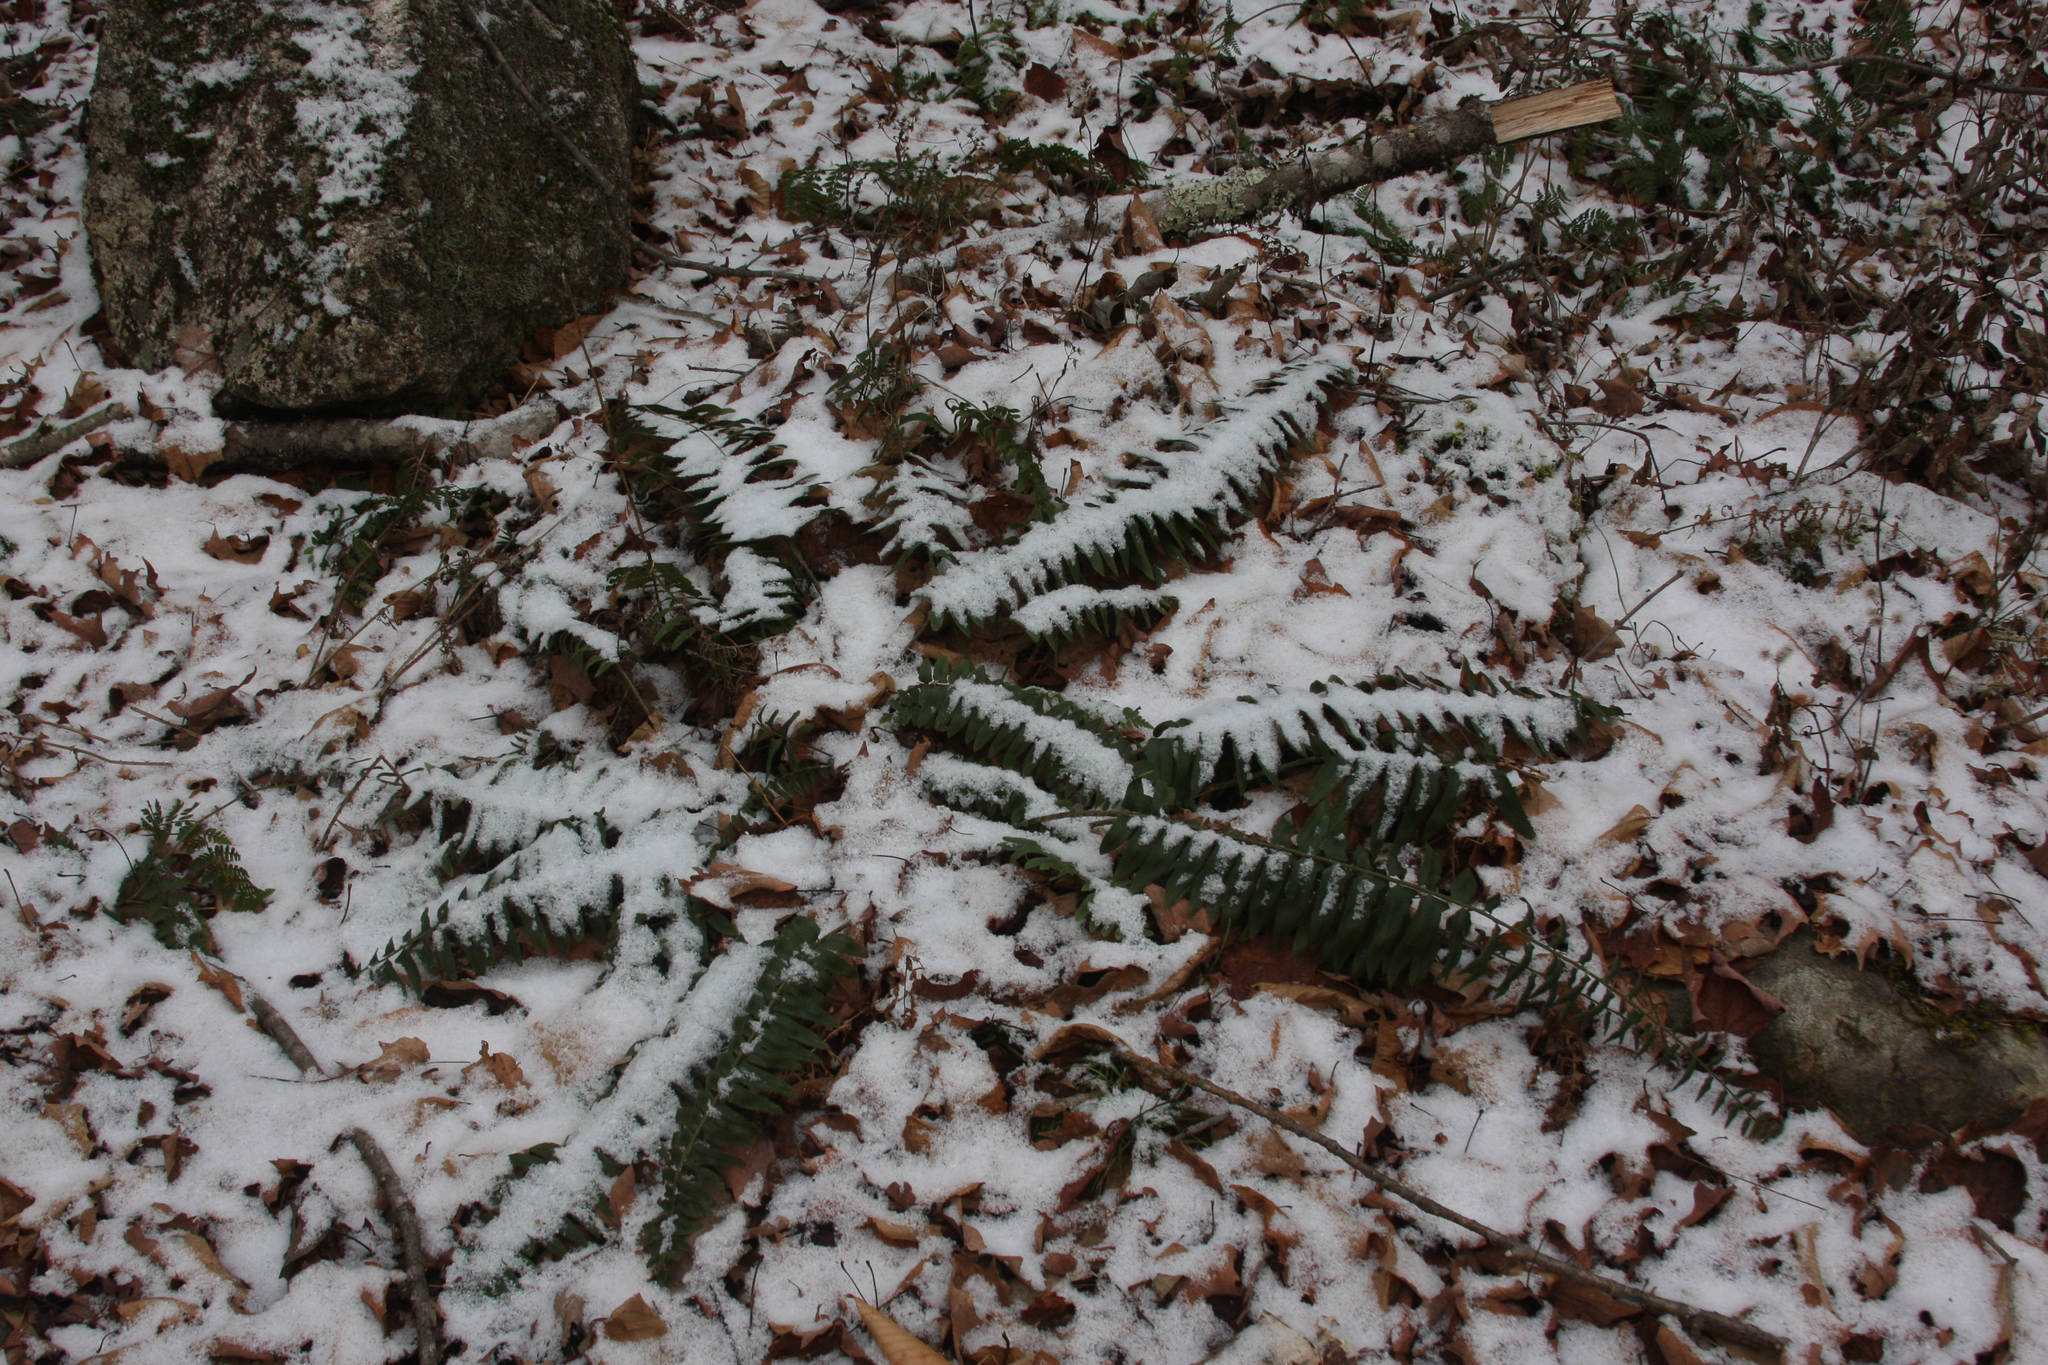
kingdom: Plantae
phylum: Tracheophyta
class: Polypodiopsida
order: Polypodiales
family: Dryopteridaceae
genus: Polystichum
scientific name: Polystichum acrostichoides
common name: Christmas fern
